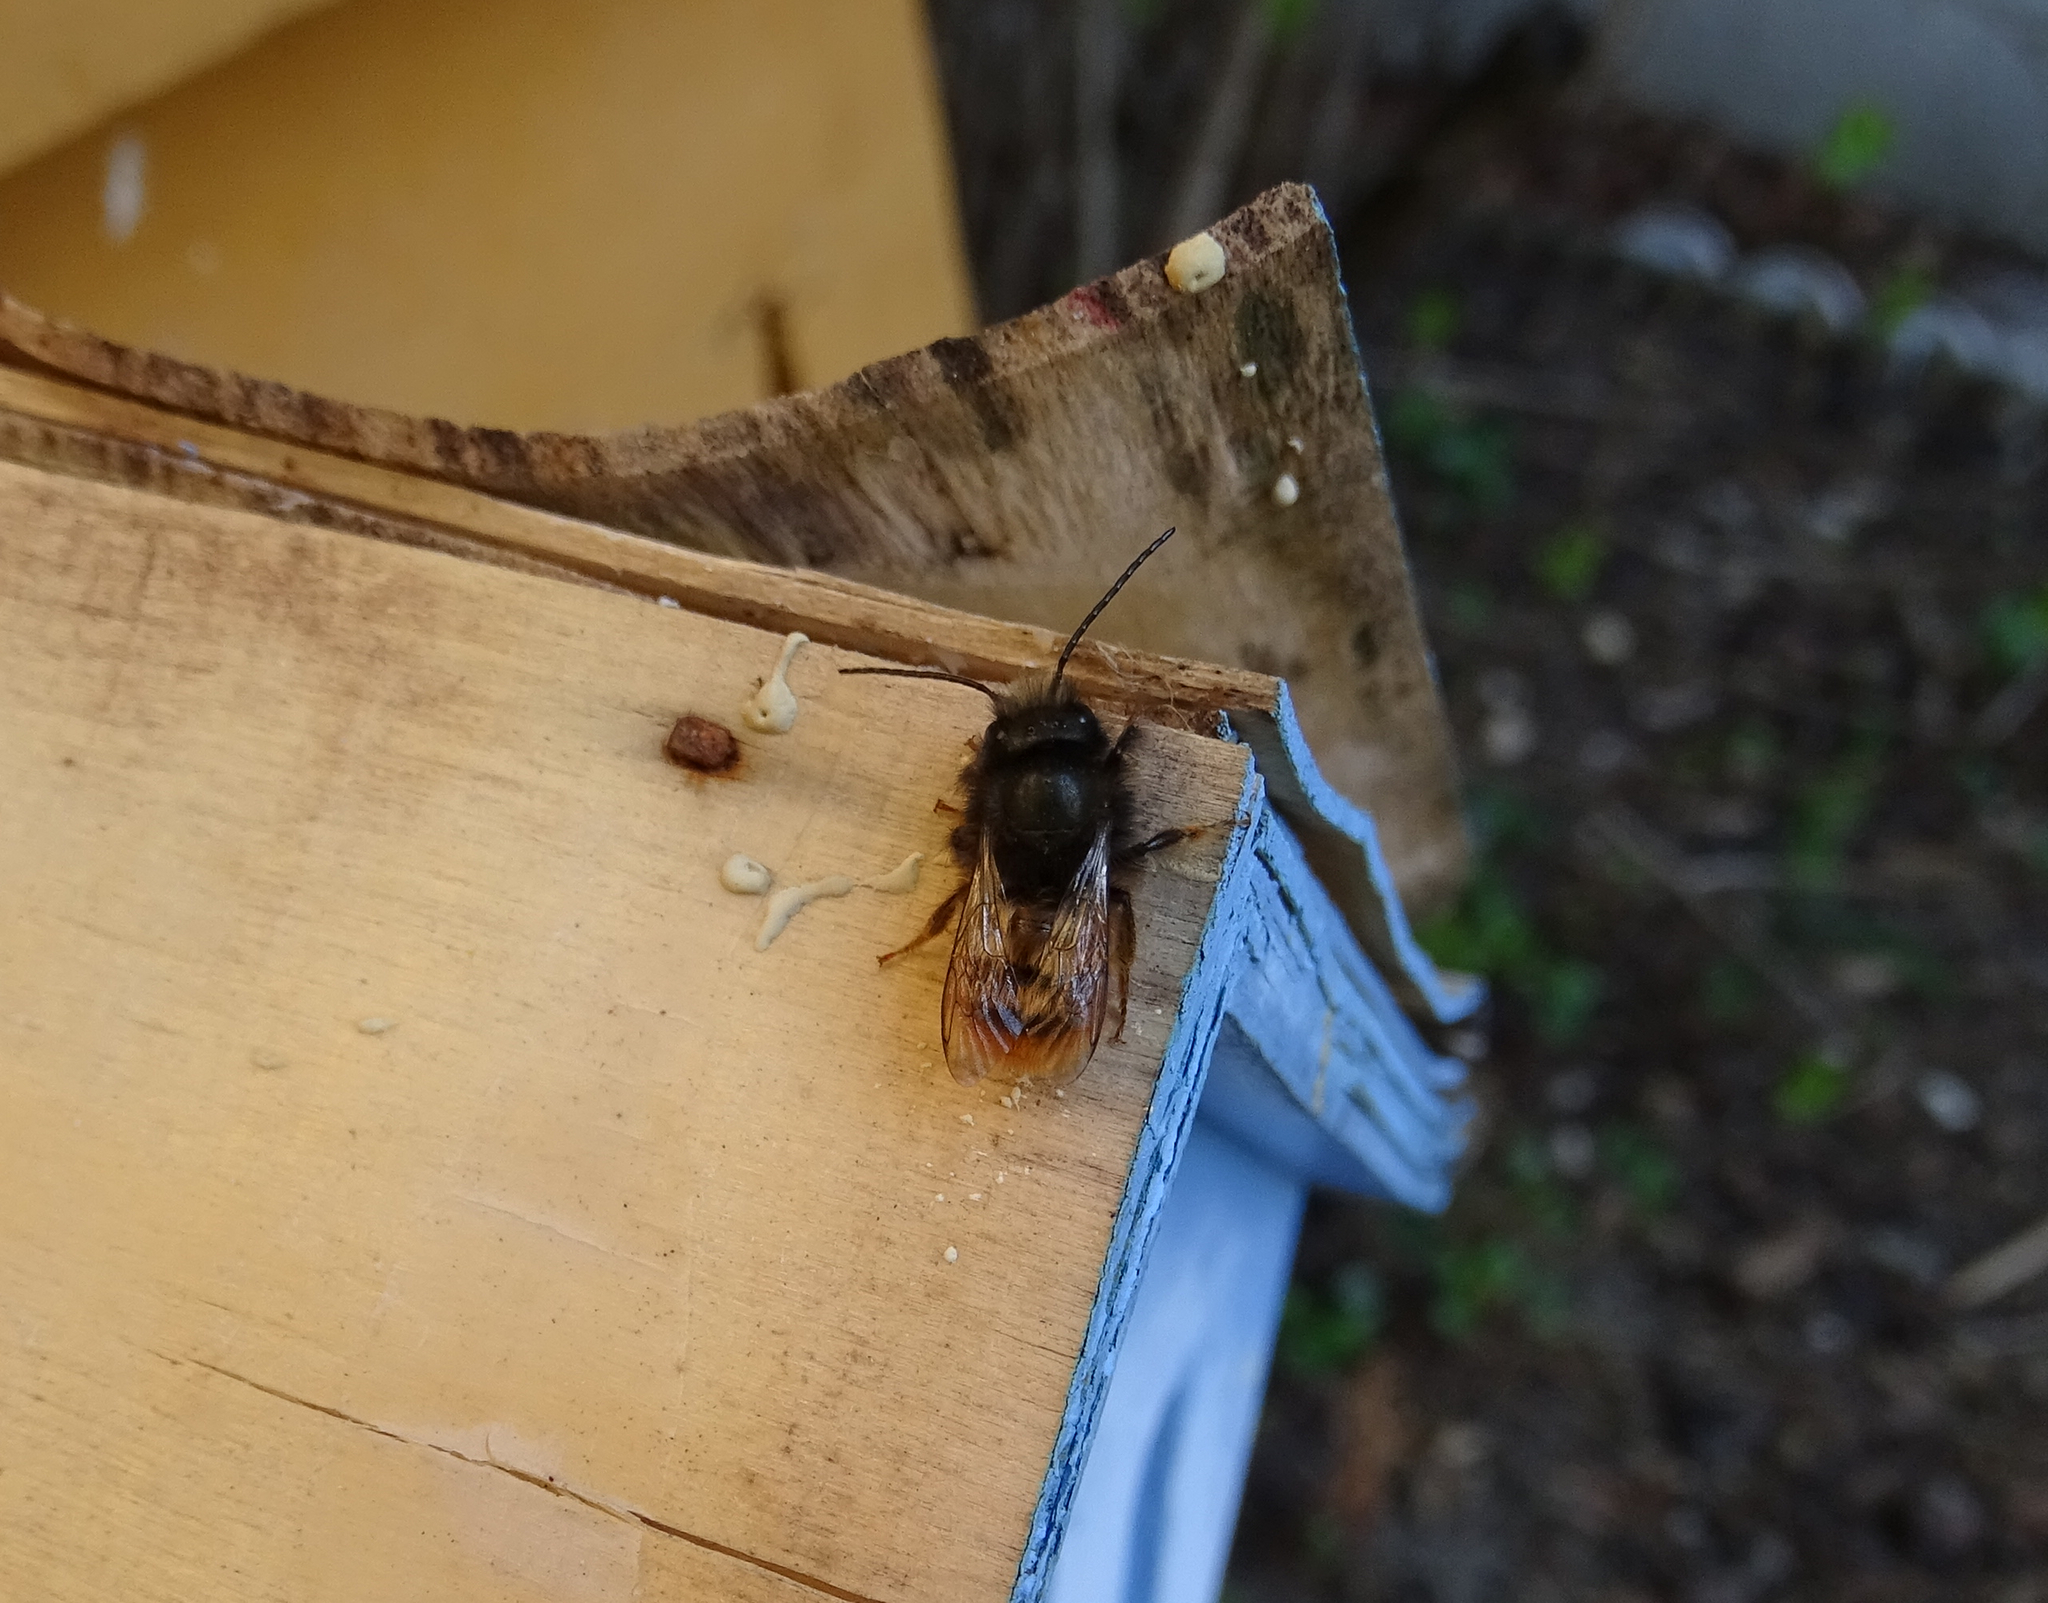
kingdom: Animalia
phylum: Arthropoda
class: Insecta
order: Hymenoptera
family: Megachilidae
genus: Osmia
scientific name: Osmia cornuta
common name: Mason bee
